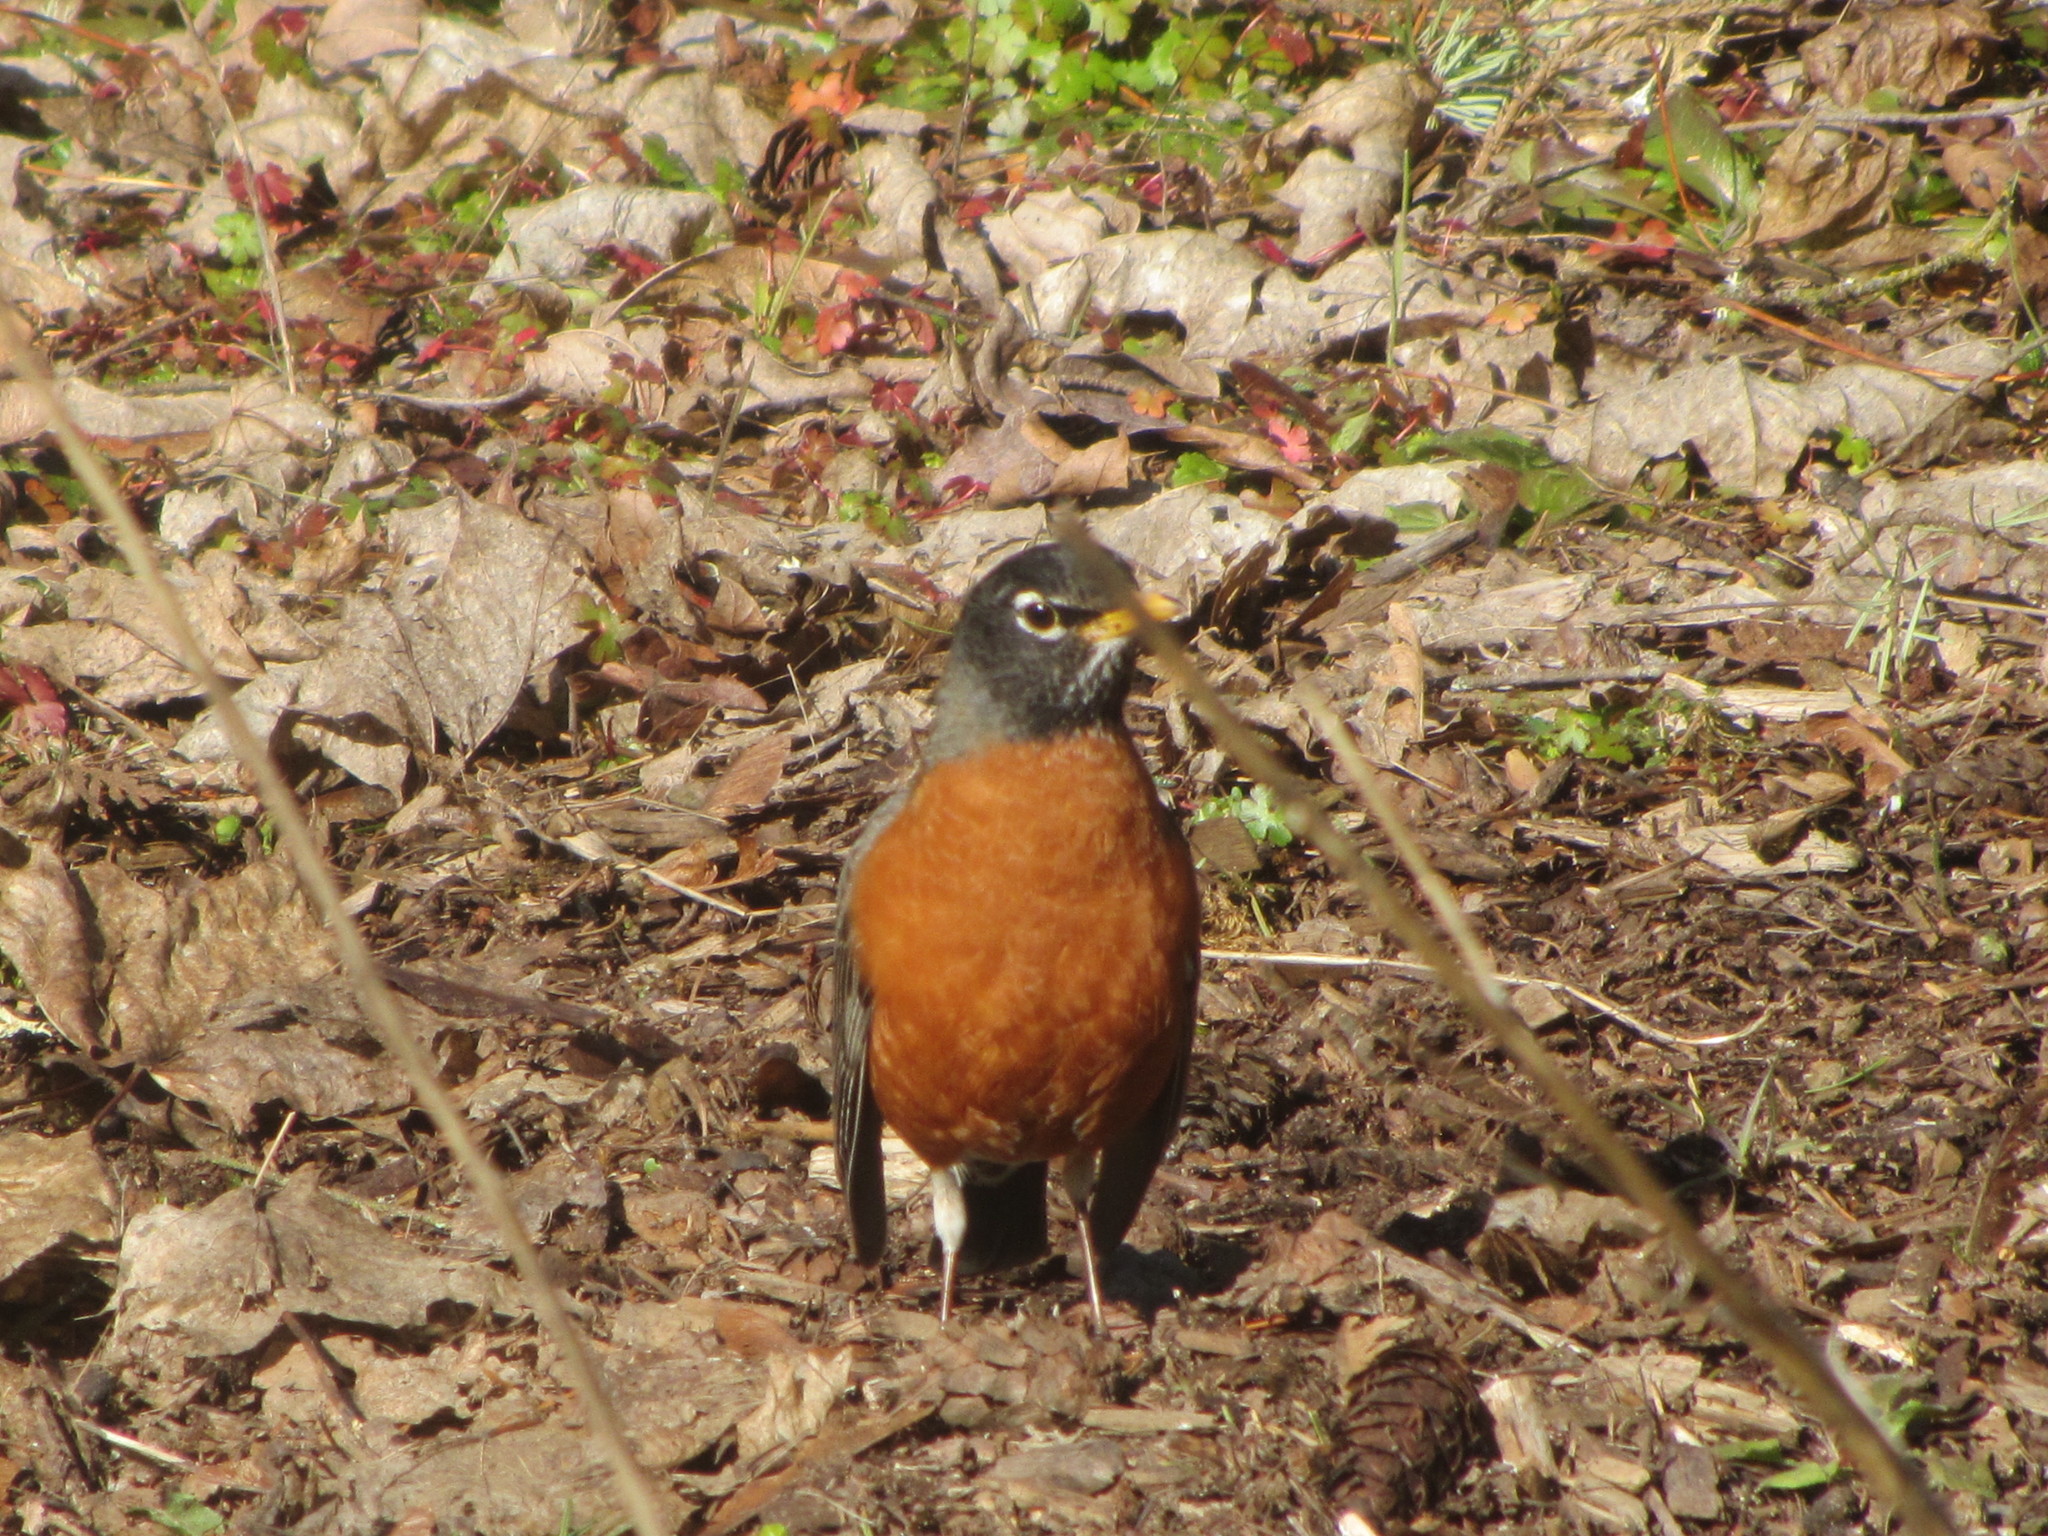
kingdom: Animalia
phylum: Chordata
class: Aves
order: Passeriformes
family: Turdidae
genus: Turdus
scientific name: Turdus migratorius
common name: American robin
